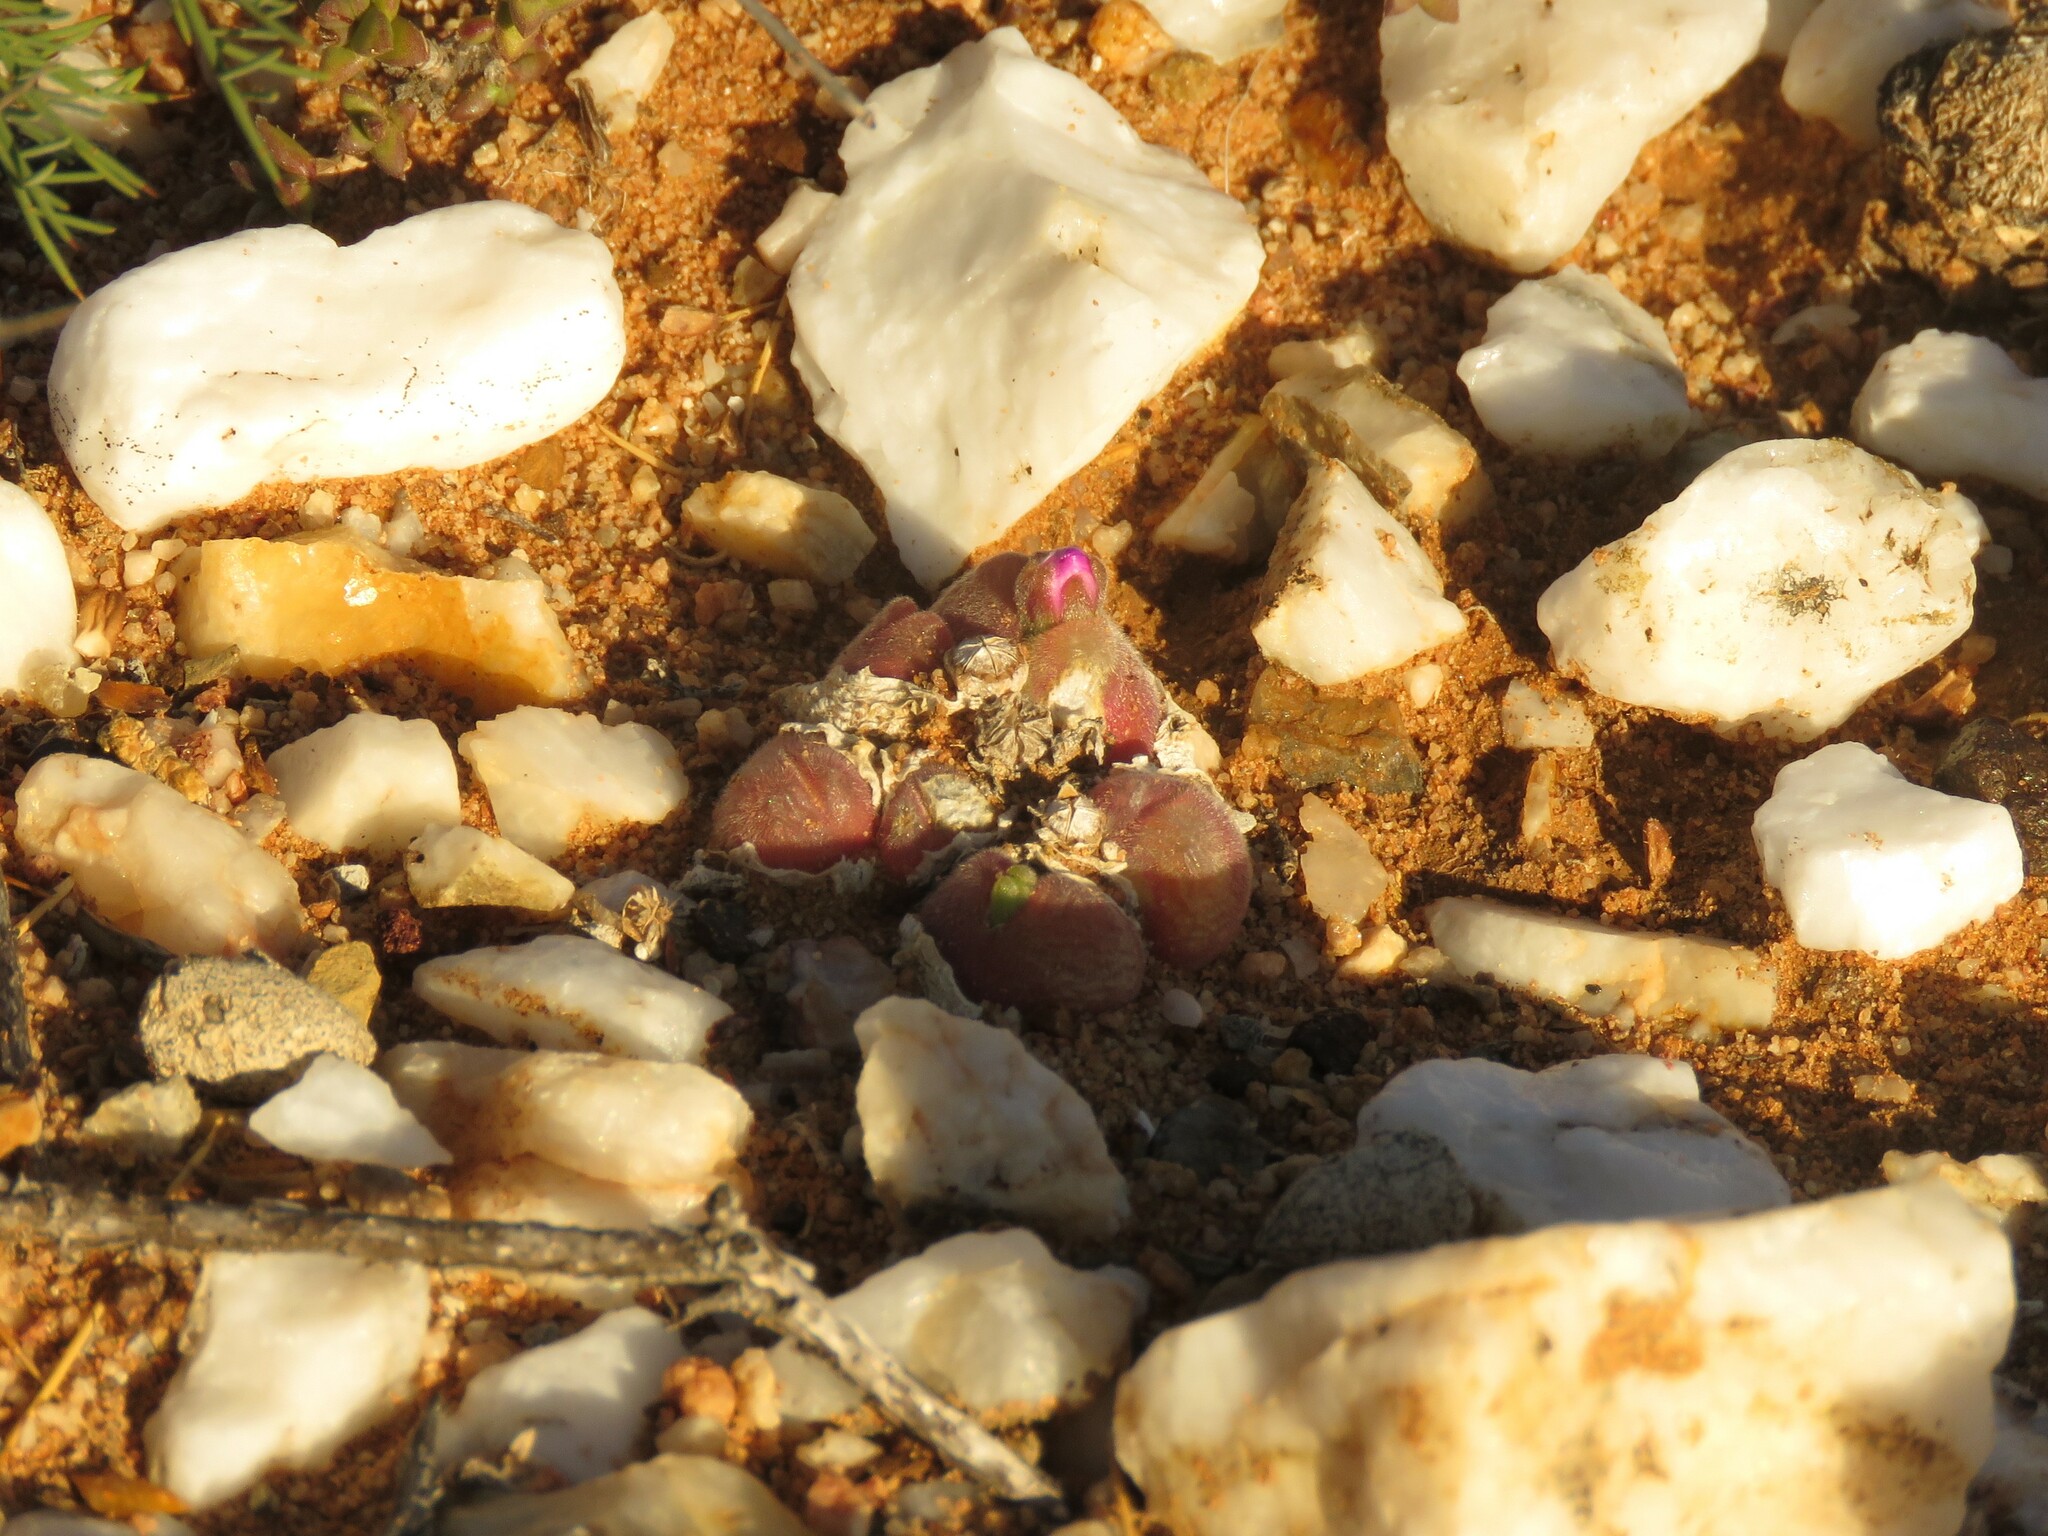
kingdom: Plantae
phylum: Tracheophyta
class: Magnoliopsida
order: Caryophyllales
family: Aizoaceae
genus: Gibbaeum
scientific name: Gibbaeum pilosulum
